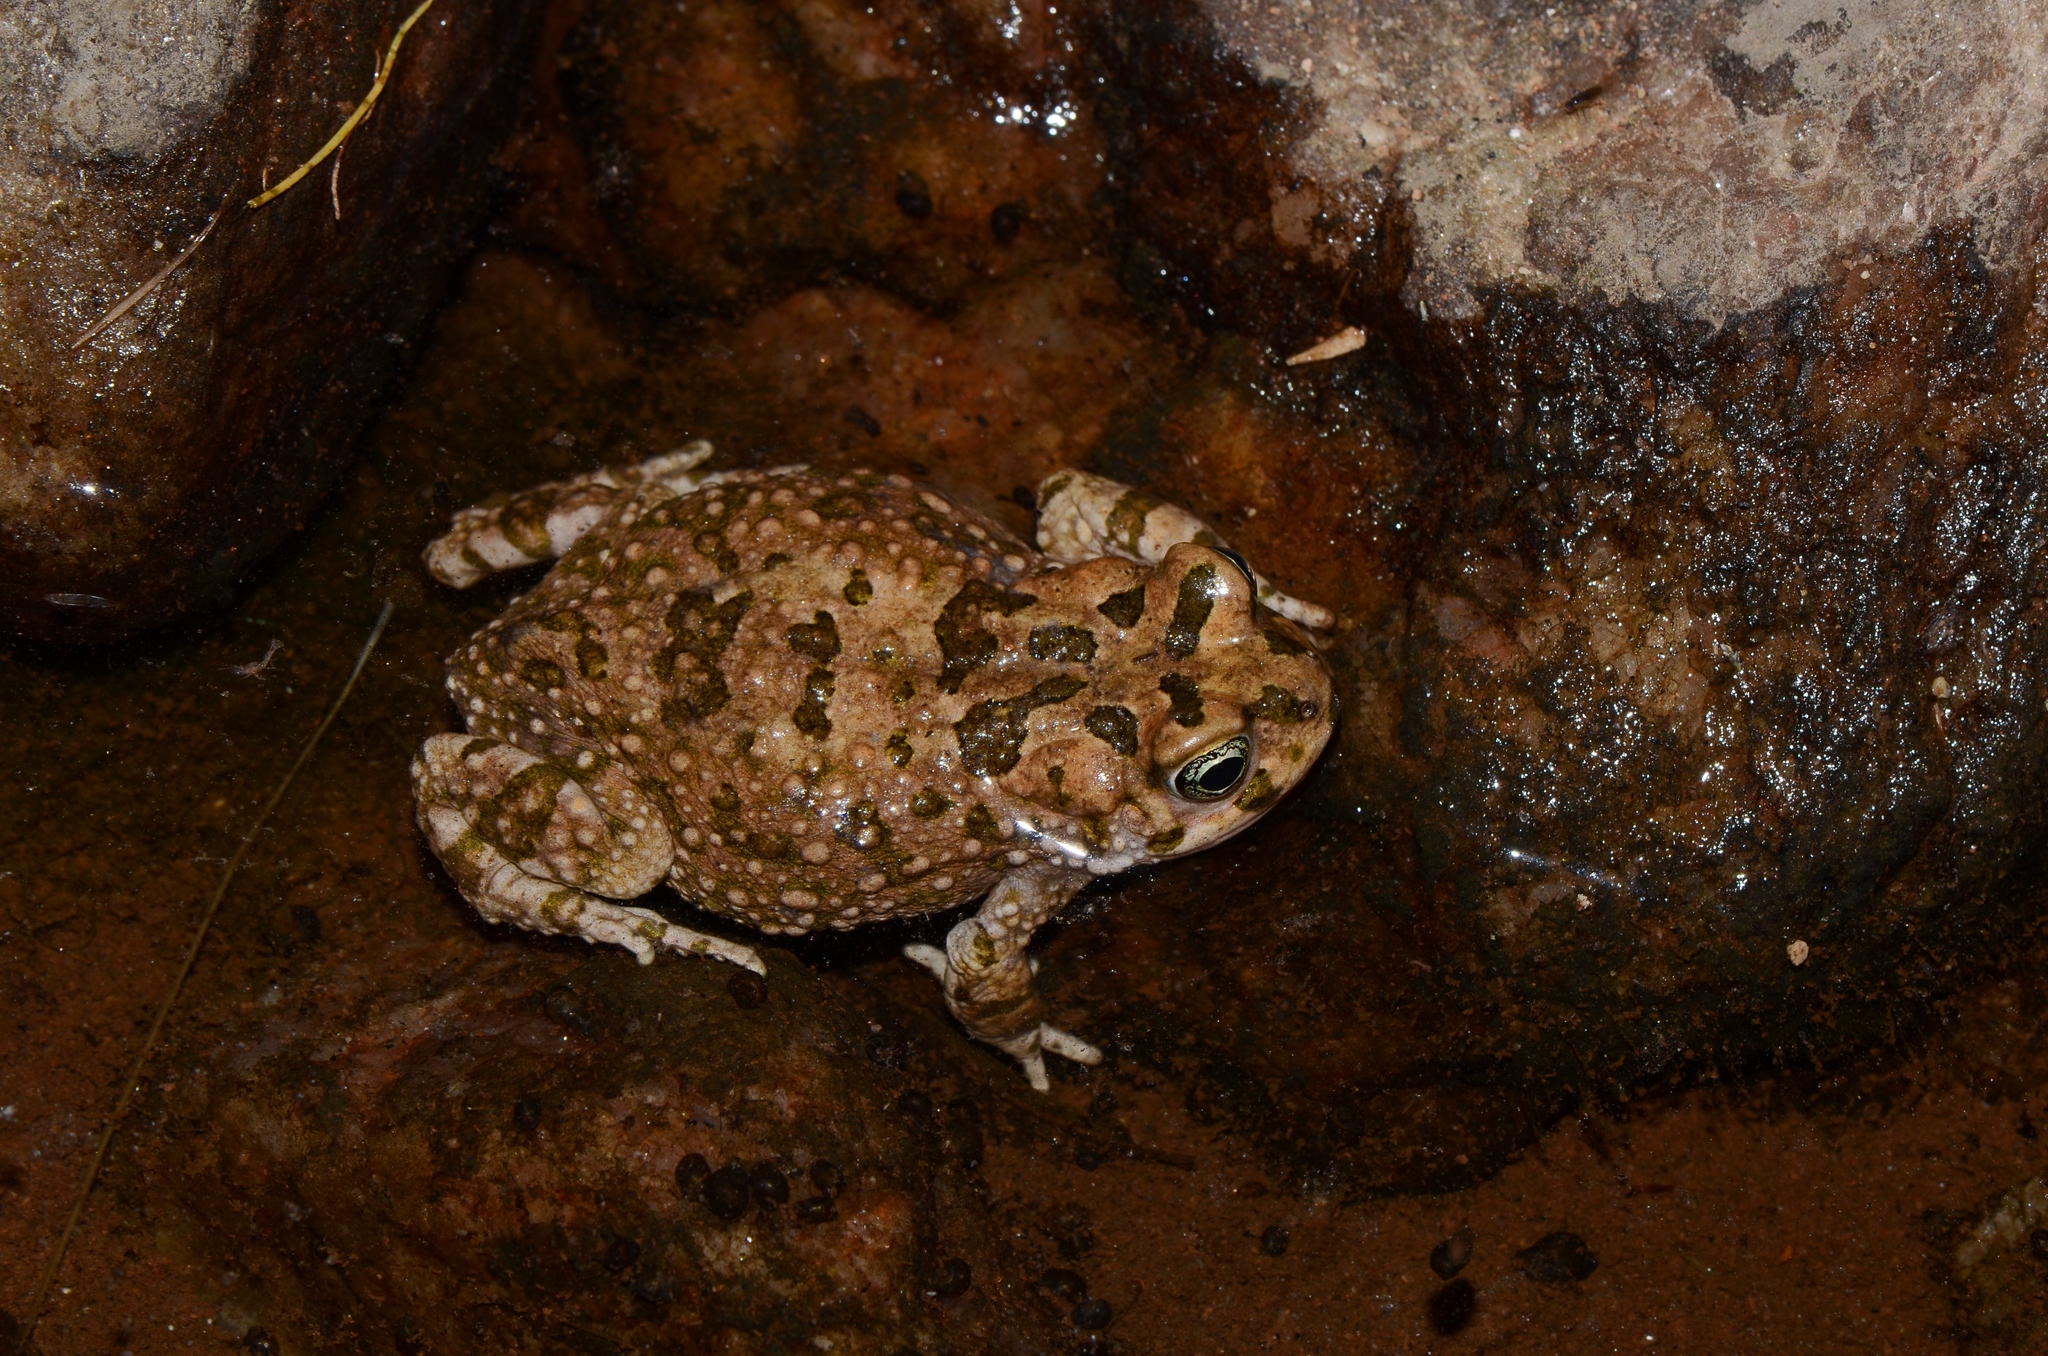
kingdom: Animalia
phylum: Chordata
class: Amphibia
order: Anura
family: Bufonidae
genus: Vandijkophrynus
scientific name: Vandijkophrynus robinsoni
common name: Paradise toad
